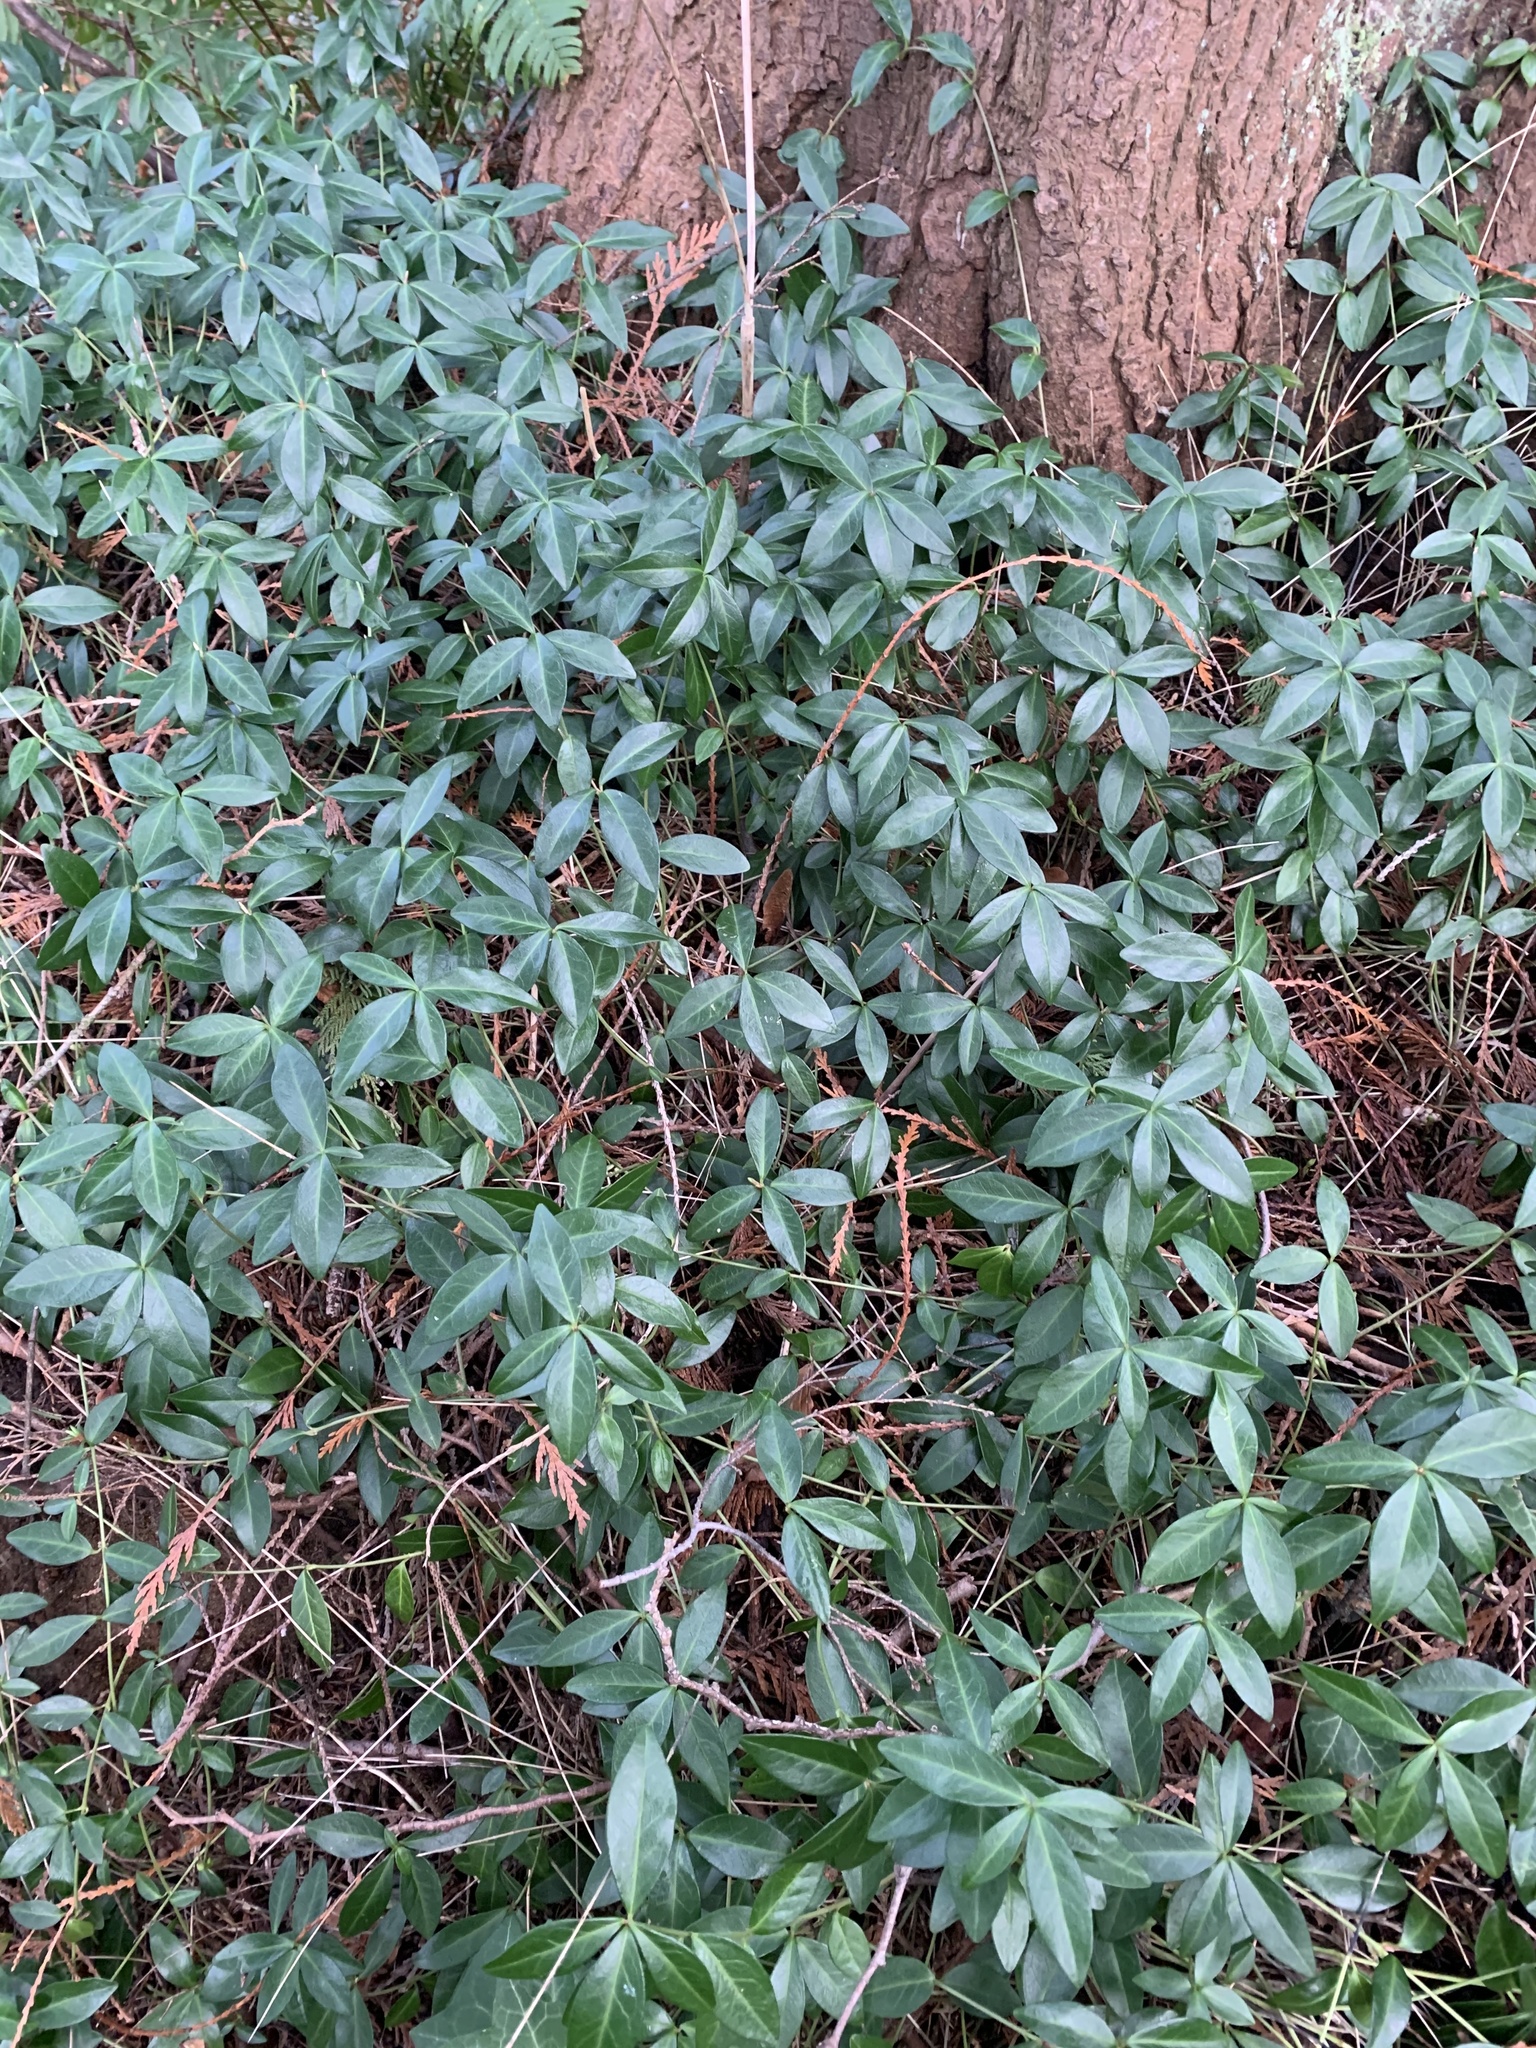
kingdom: Plantae
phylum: Tracheophyta
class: Magnoliopsida
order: Gentianales
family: Apocynaceae
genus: Vinca
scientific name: Vinca minor
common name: Lesser periwinkle
